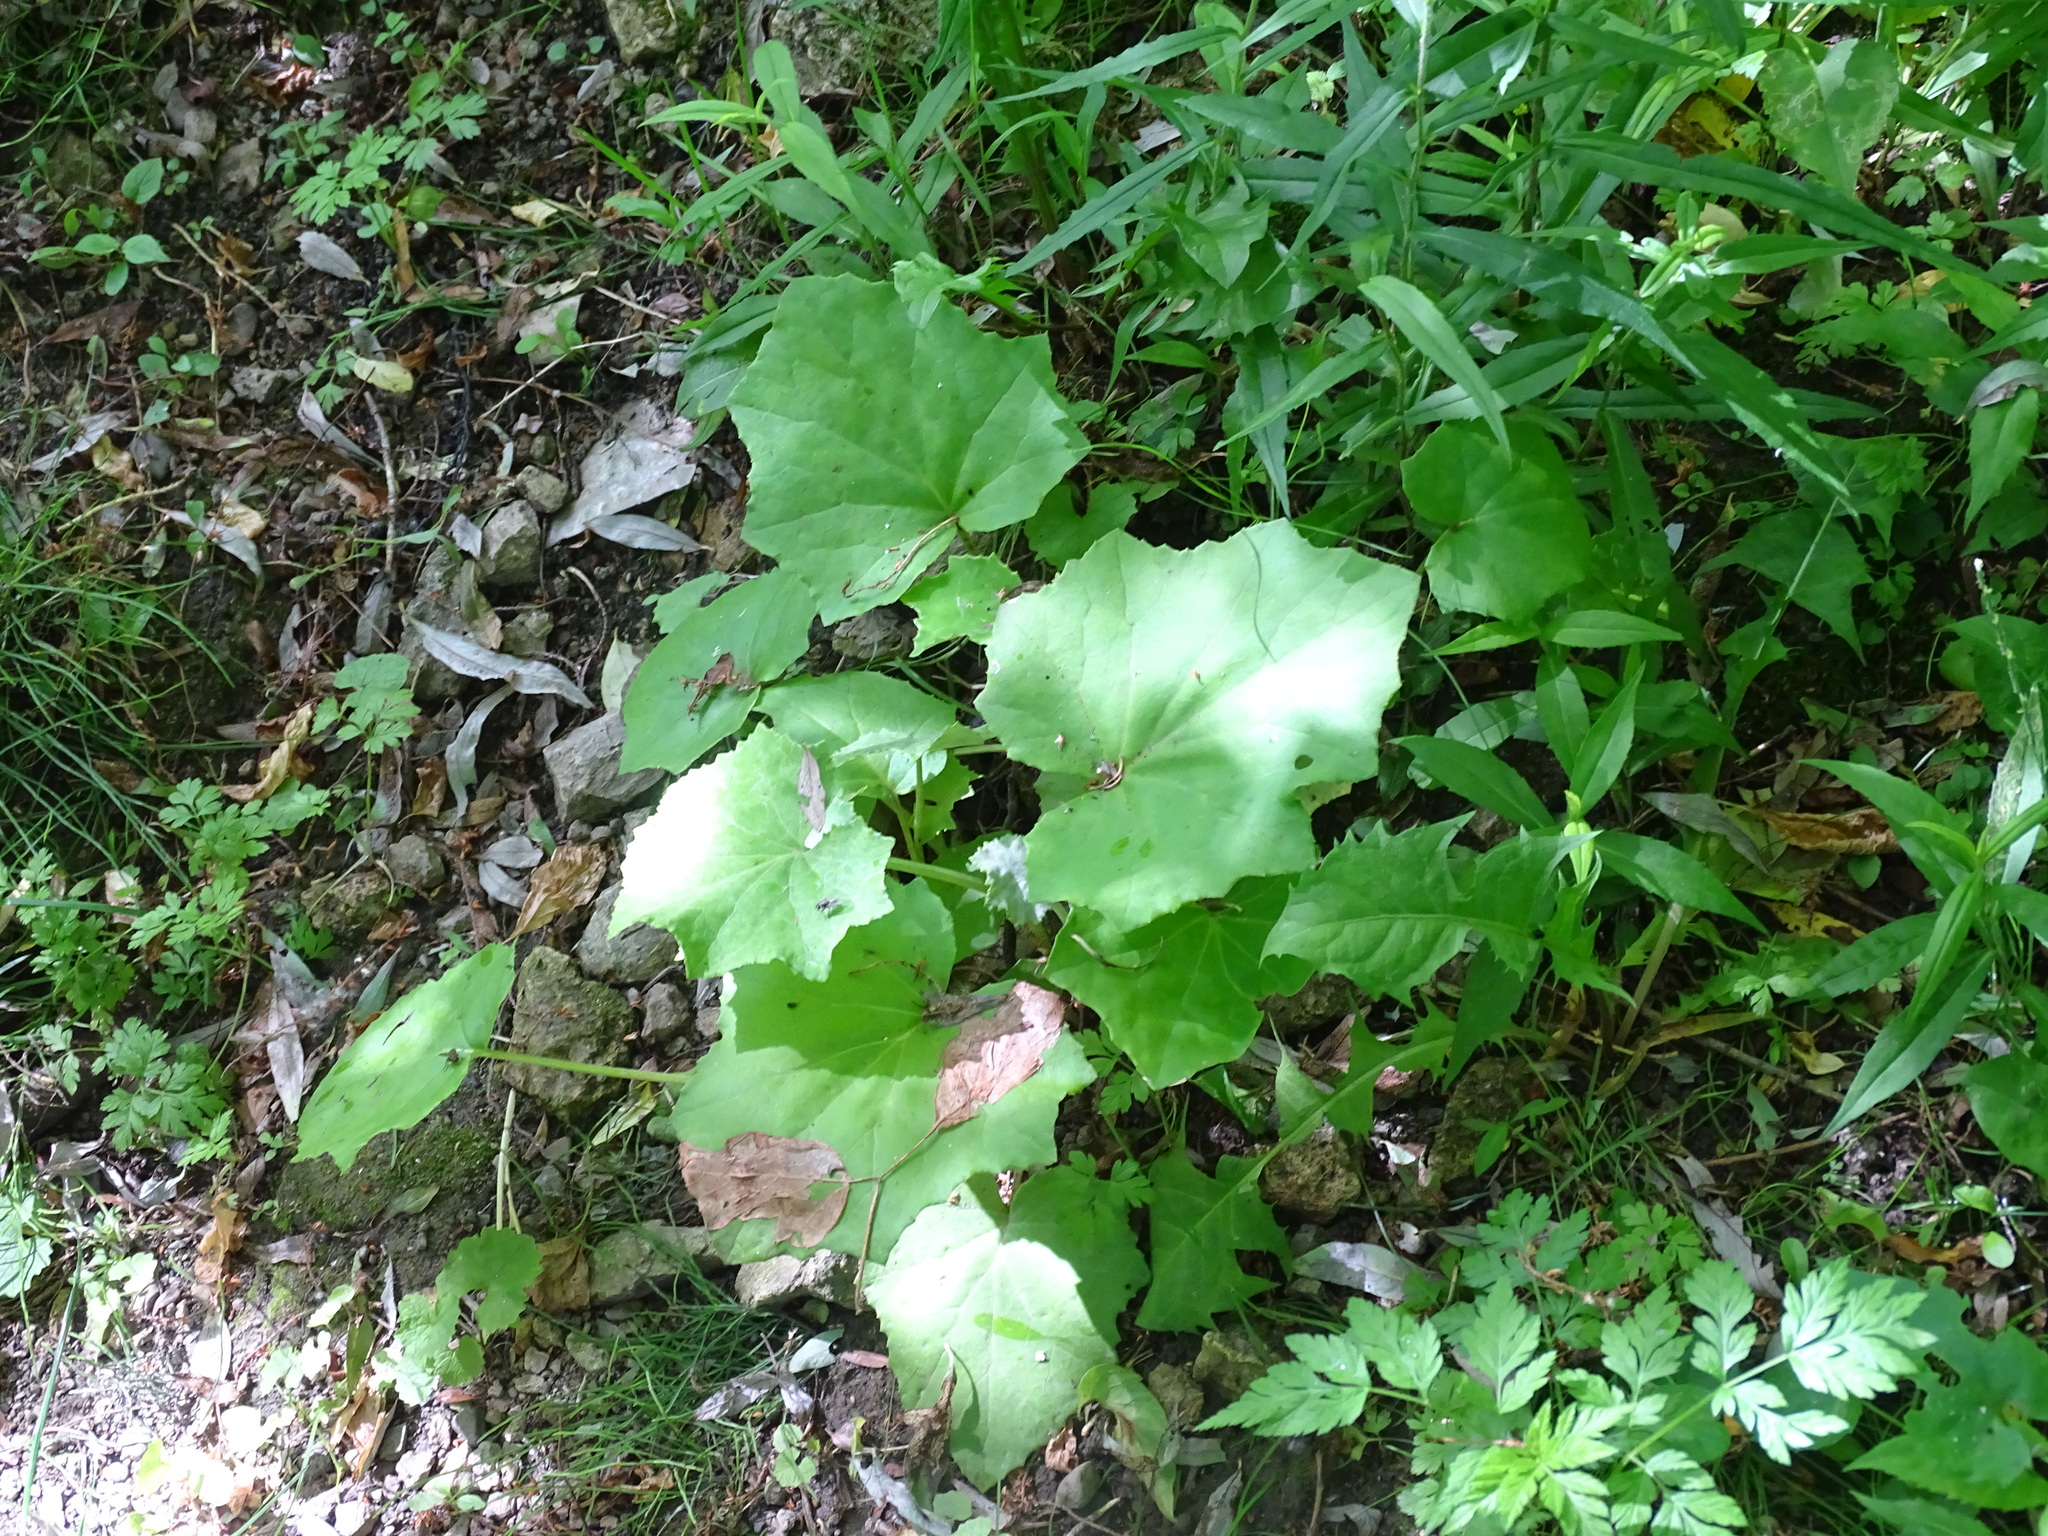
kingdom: Plantae
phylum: Tracheophyta
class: Magnoliopsida
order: Asterales
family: Asteraceae
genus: Tussilago
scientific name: Tussilago farfara
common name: Coltsfoot
